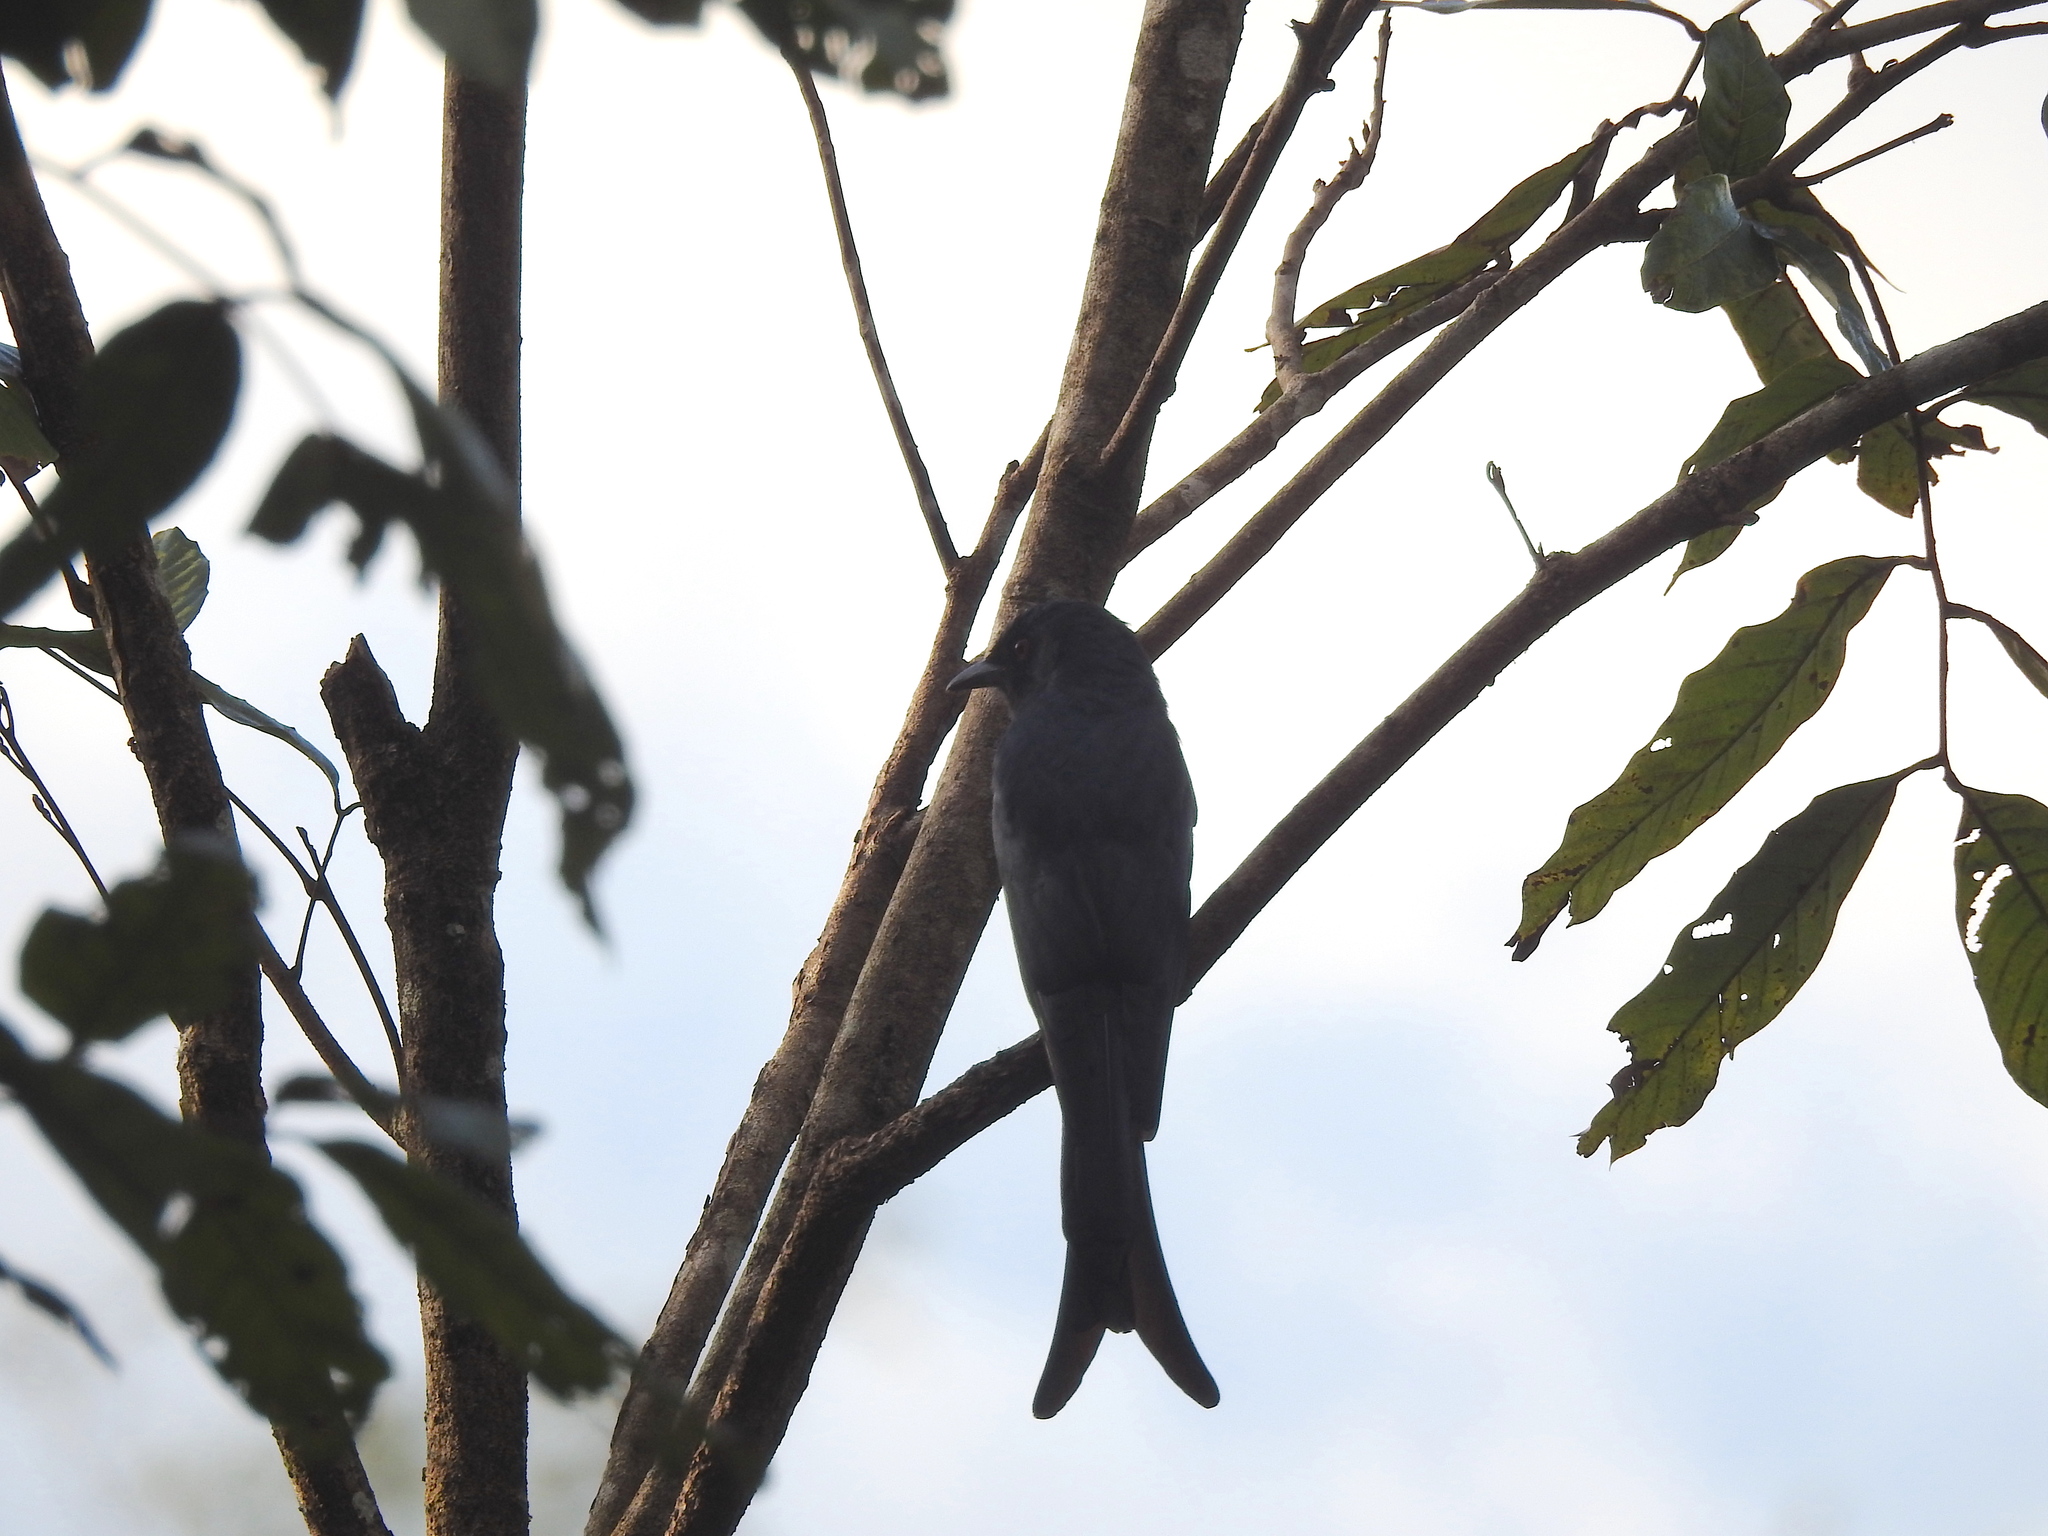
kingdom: Animalia
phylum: Chordata
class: Aves
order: Passeriformes
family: Dicruridae
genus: Dicrurus
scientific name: Dicrurus leucophaeus
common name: Ashy drongo
